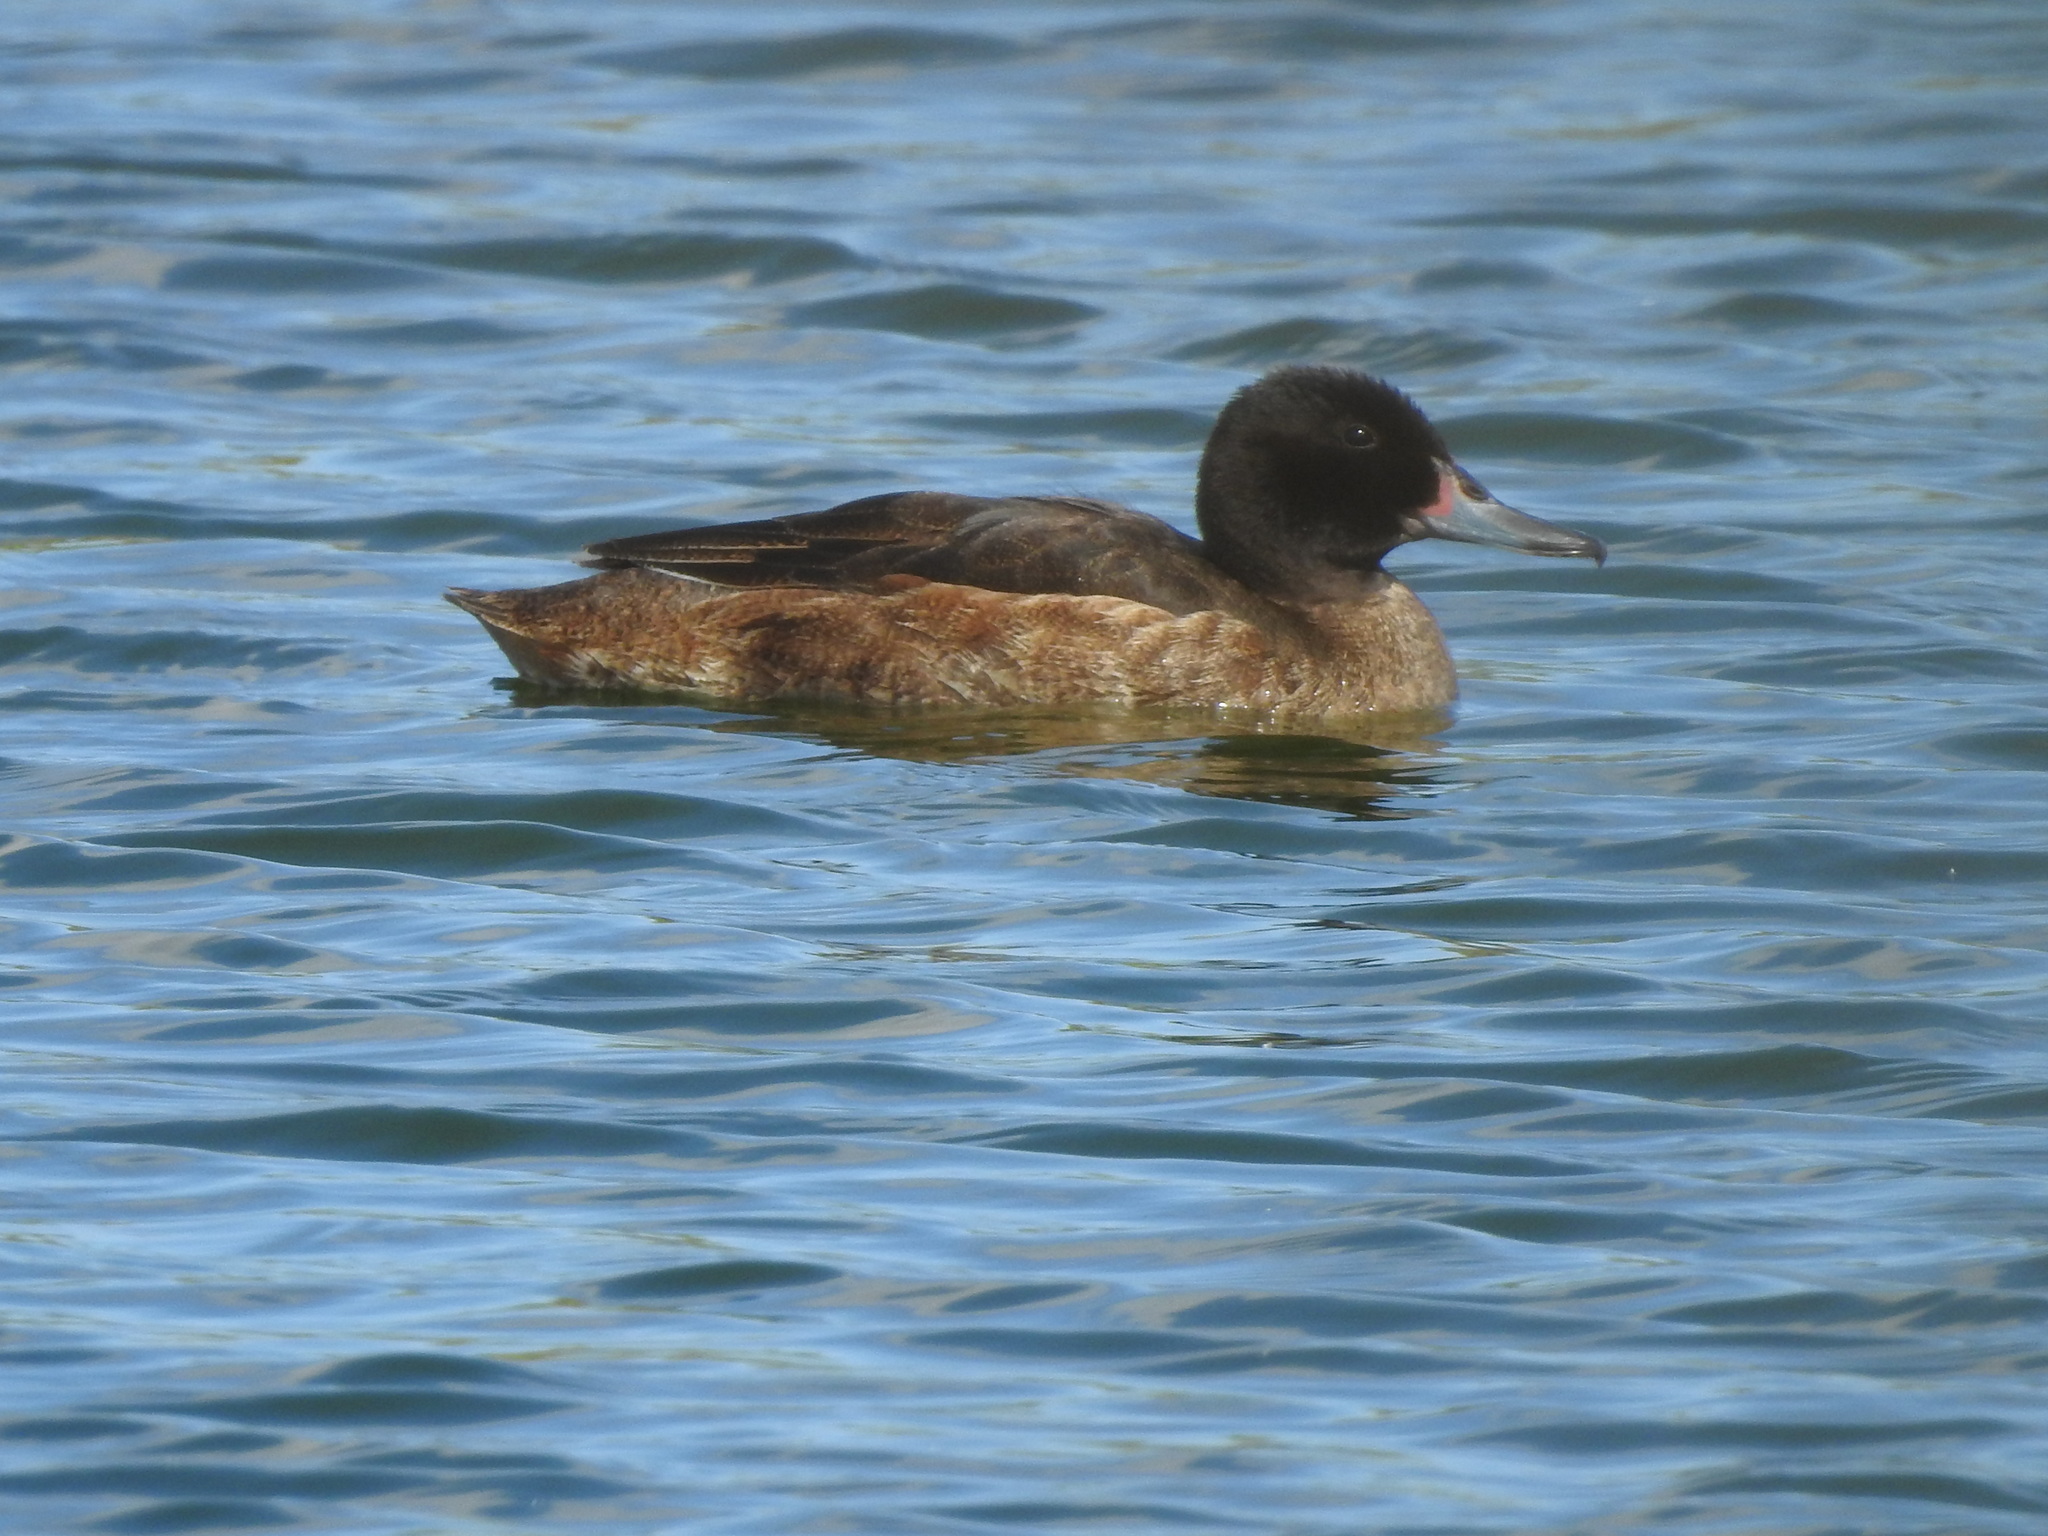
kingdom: Animalia
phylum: Chordata
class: Aves
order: Anseriformes
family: Anatidae
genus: Heteronetta
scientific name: Heteronetta atricapilla
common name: Black-headed duck
